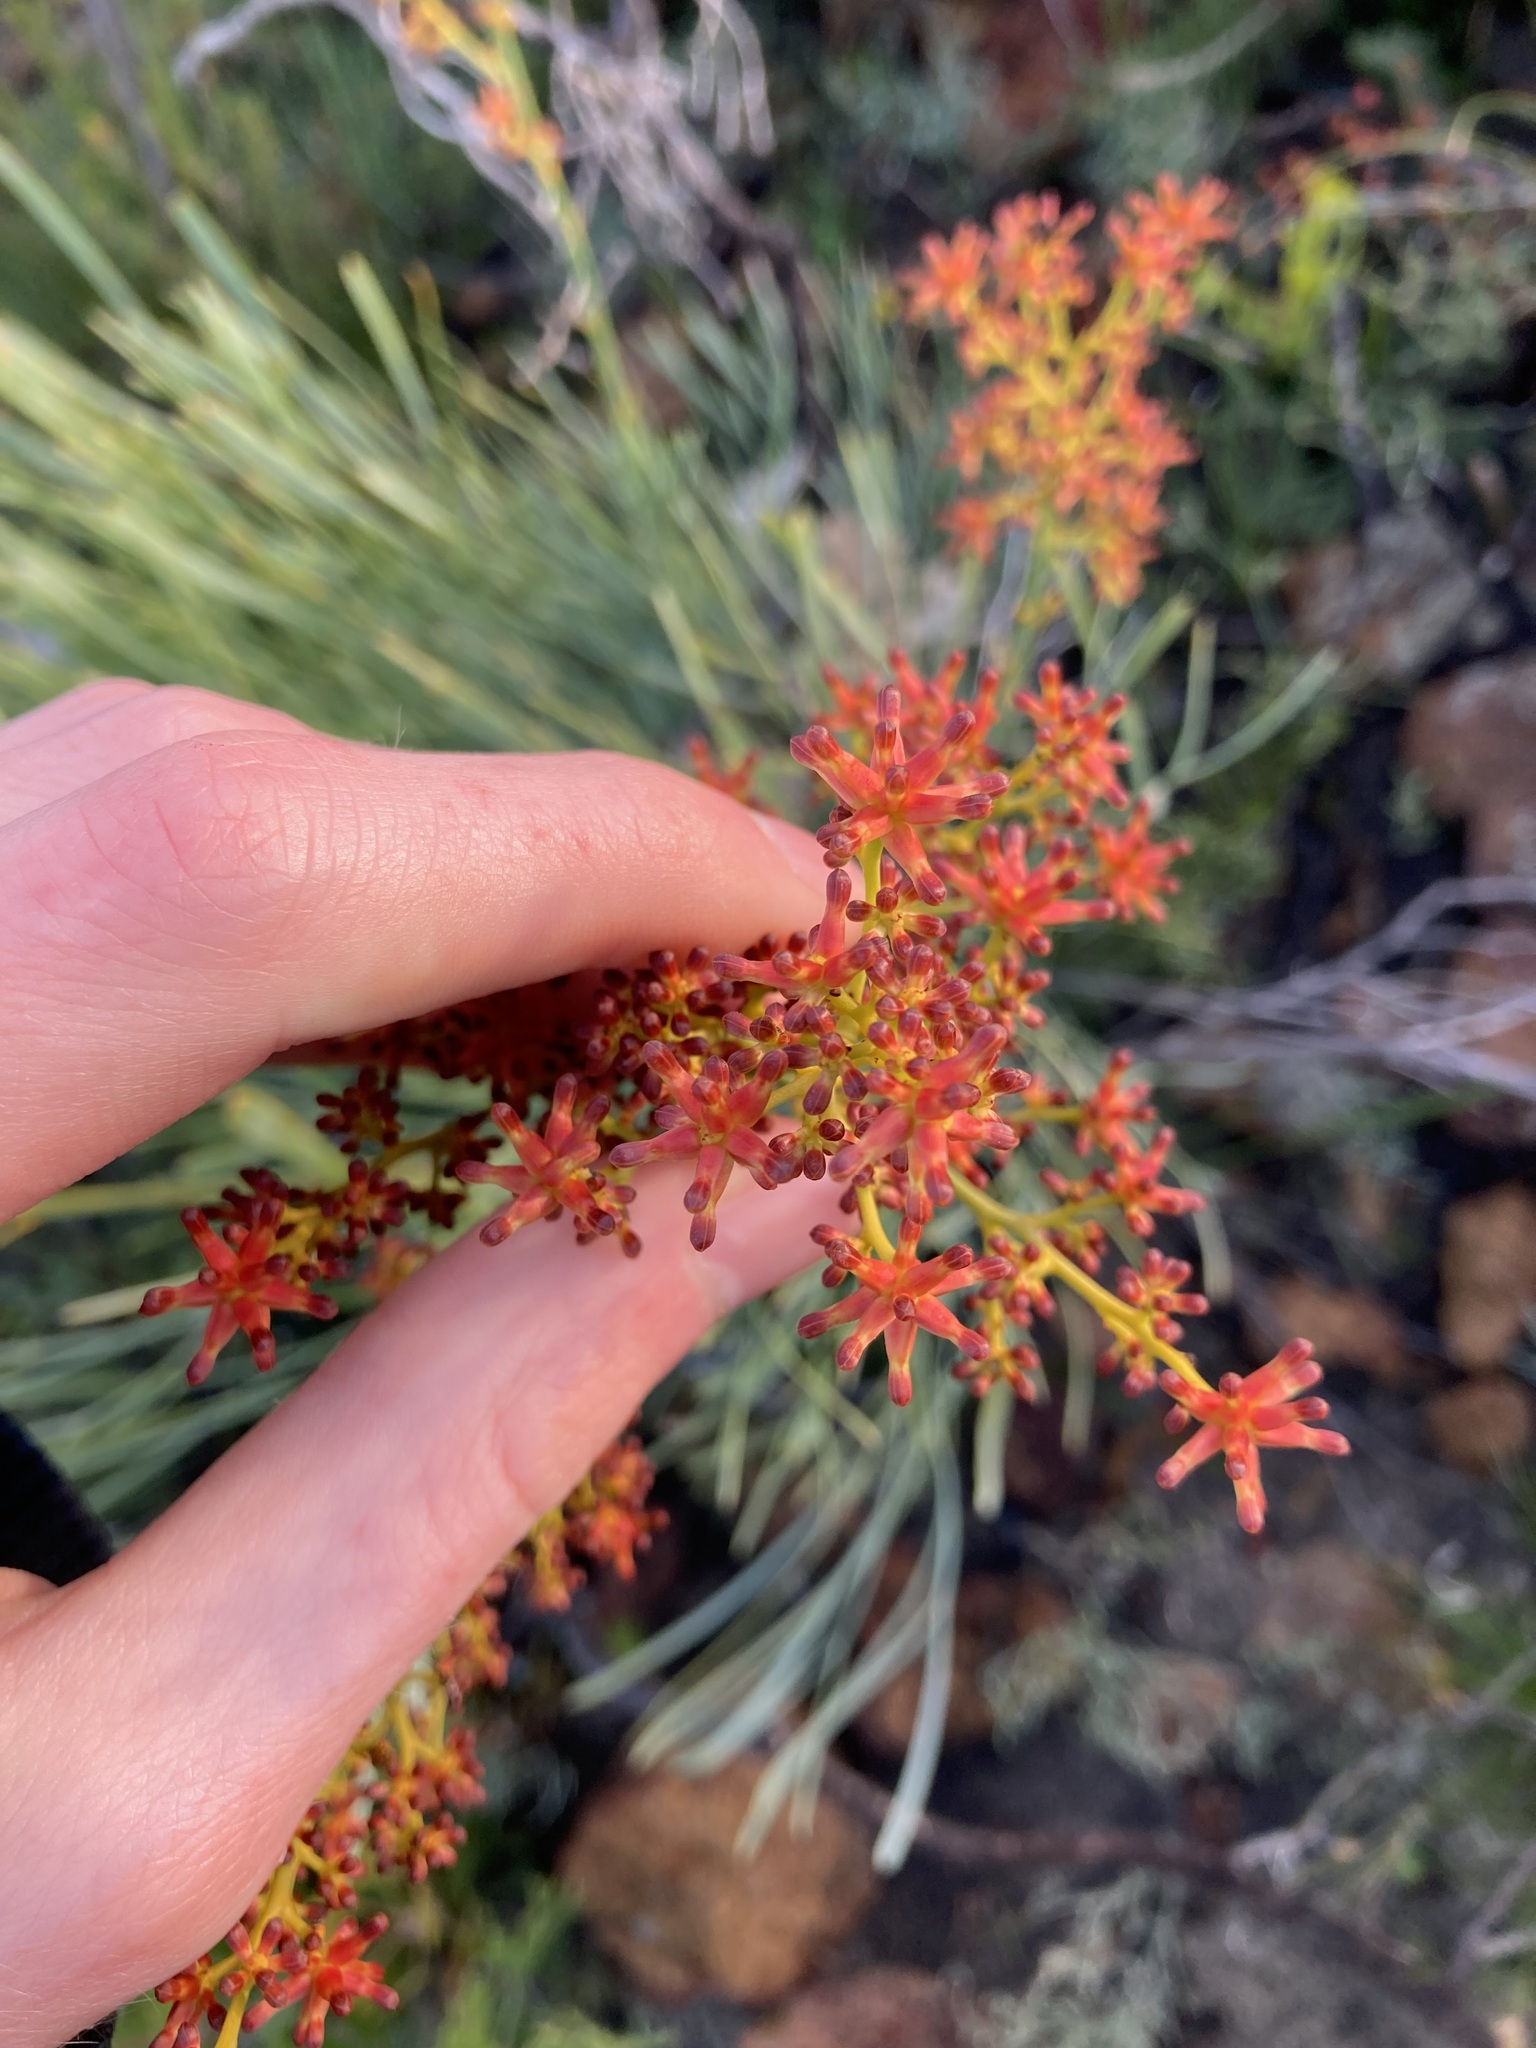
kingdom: Plantae
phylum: Tracheophyta
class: Magnoliopsida
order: Proteales
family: Proteaceae
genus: Stirlingia
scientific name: Stirlingia latifolia
